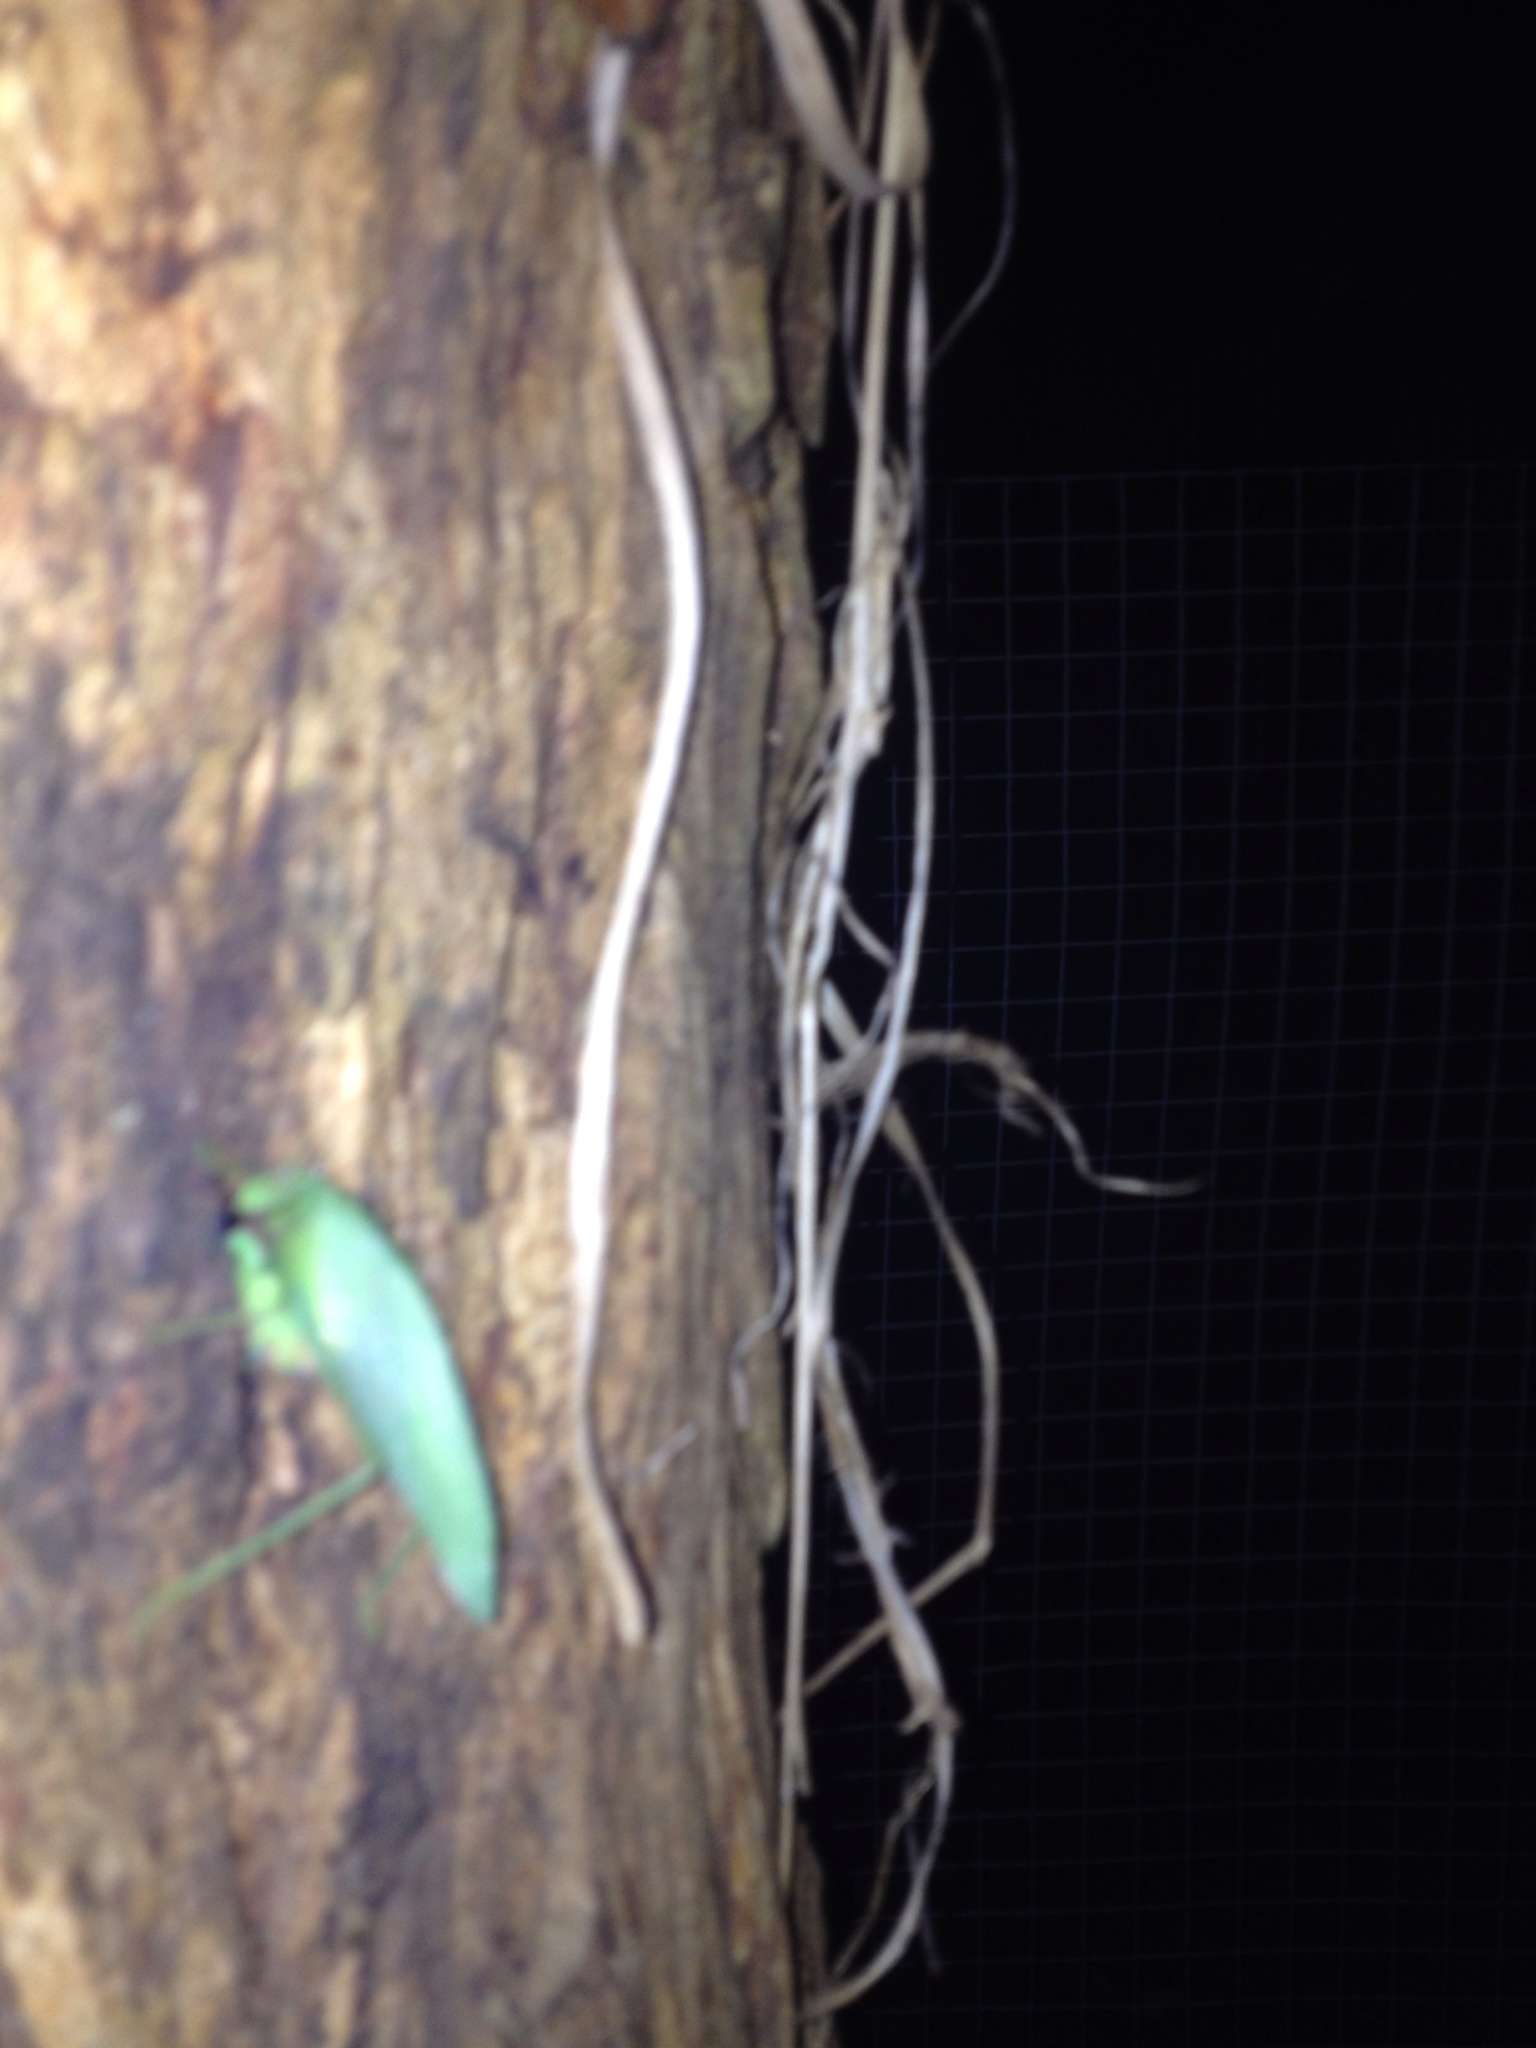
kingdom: Animalia
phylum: Arthropoda
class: Insecta
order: Orthoptera
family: Tettigoniidae
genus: Caedicia
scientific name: Caedicia simplex
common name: Common garden katydid
